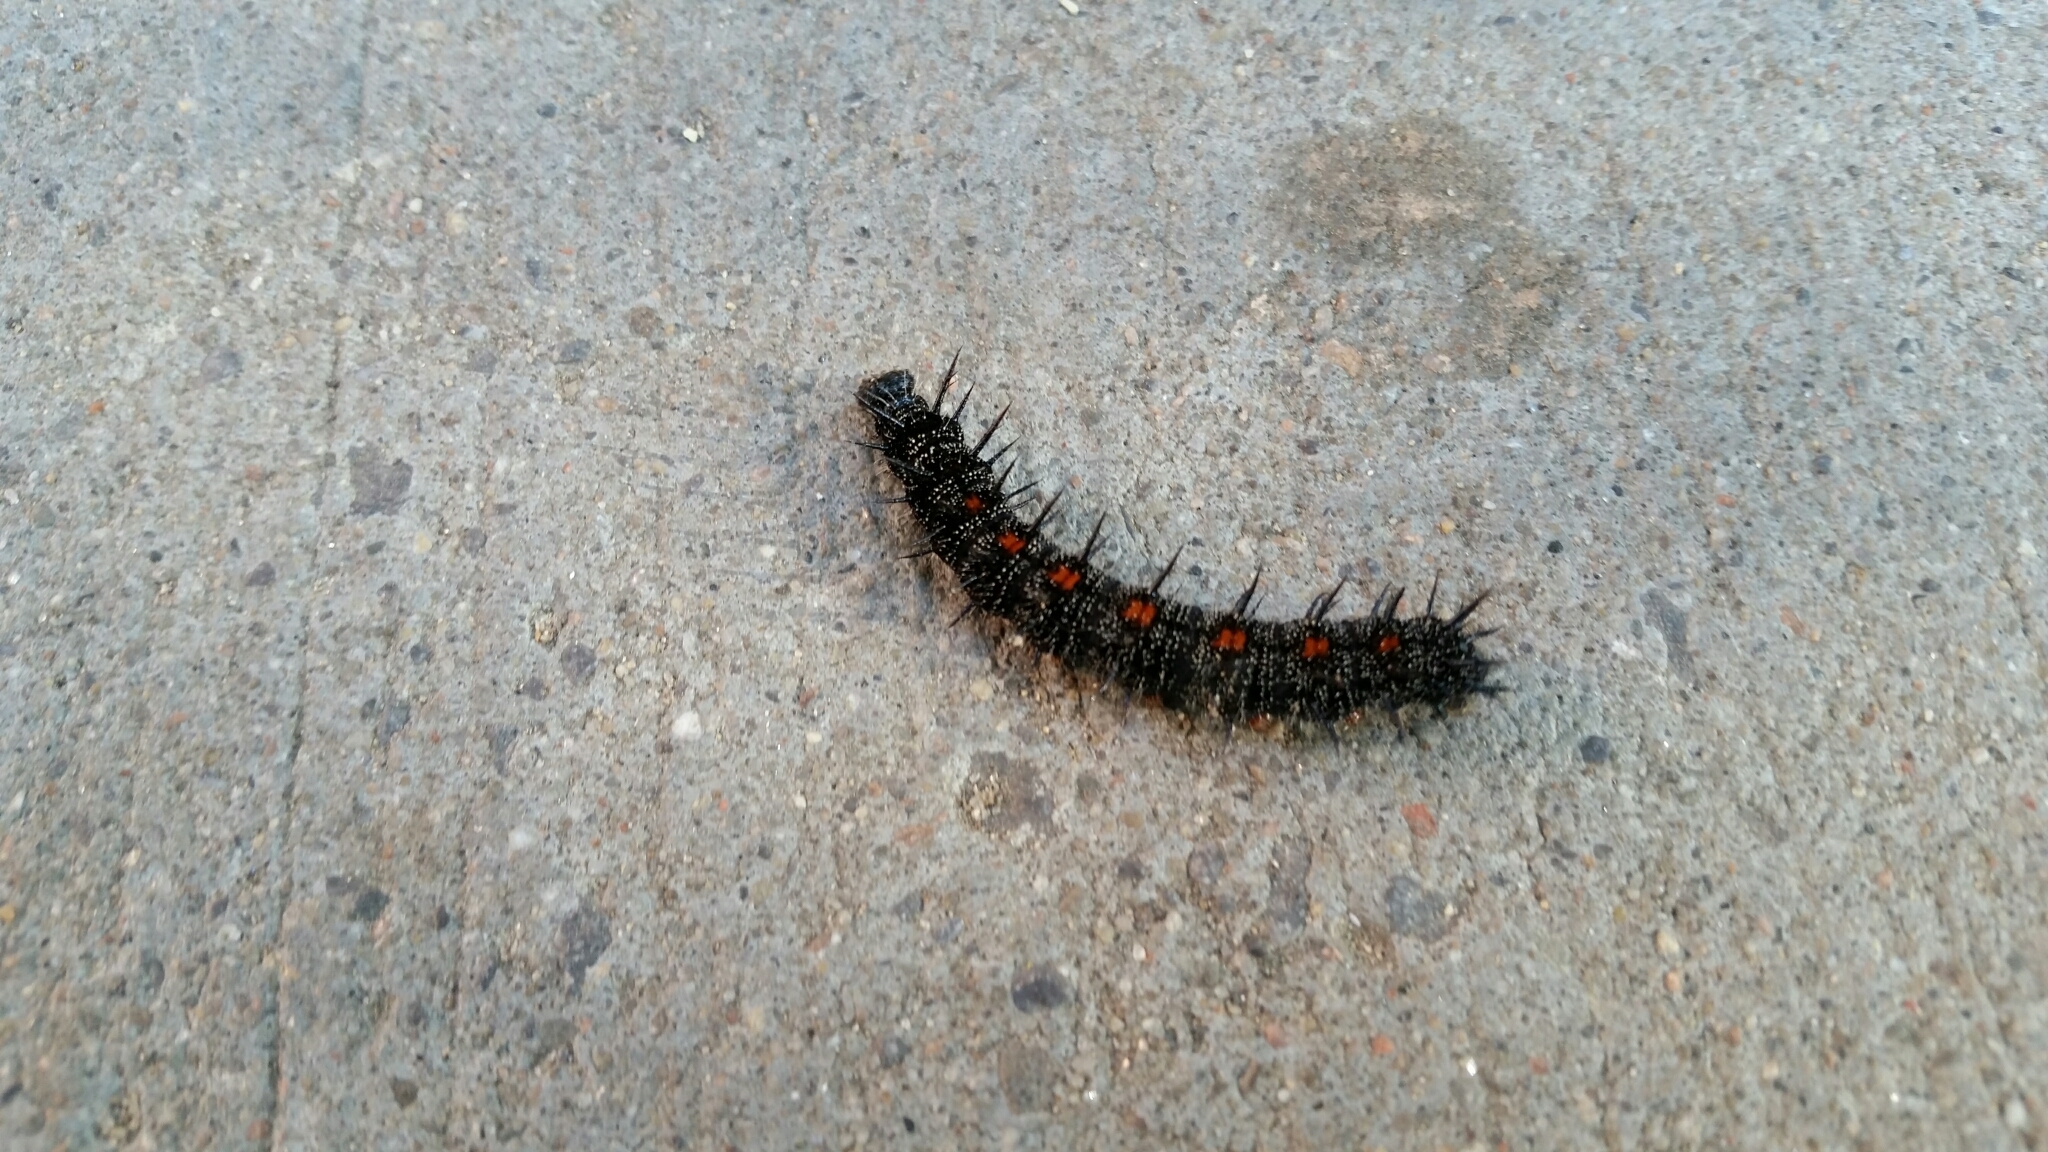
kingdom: Animalia
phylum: Arthropoda
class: Insecta
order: Lepidoptera
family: Nymphalidae
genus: Nymphalis
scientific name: Nymphalis antiopa
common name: Camberwell beauty
